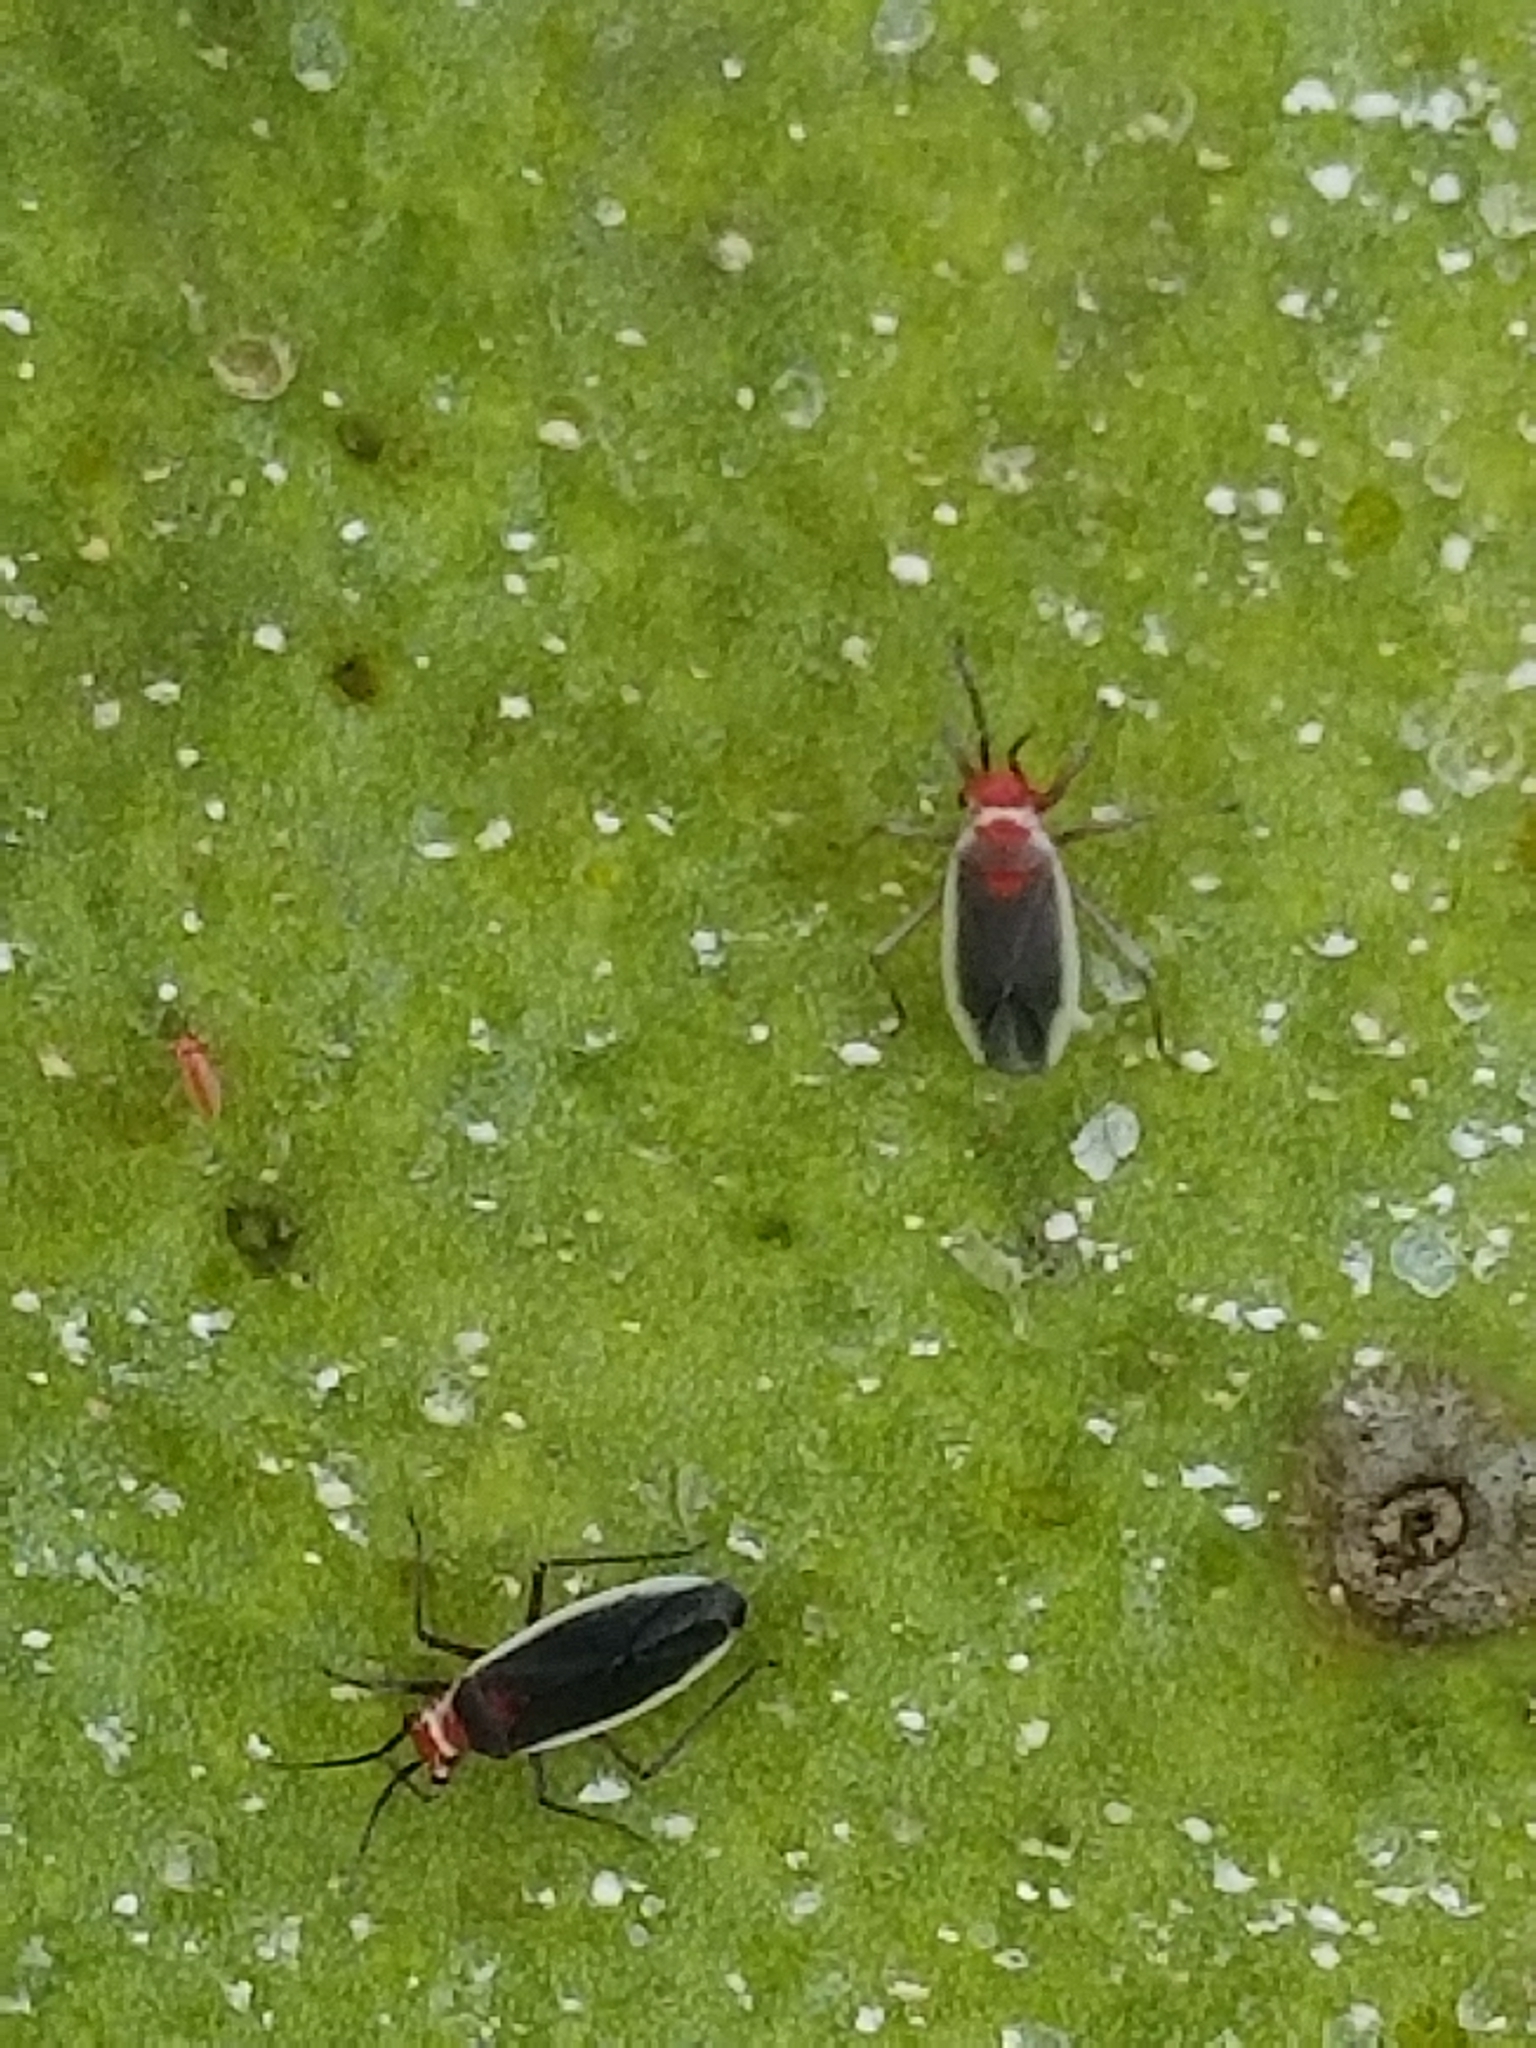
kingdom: Animalia
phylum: Arthropoda
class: Insecta
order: Hemiptera
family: Miridae
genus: Hesperolabops
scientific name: Hesperolabops gelastops
